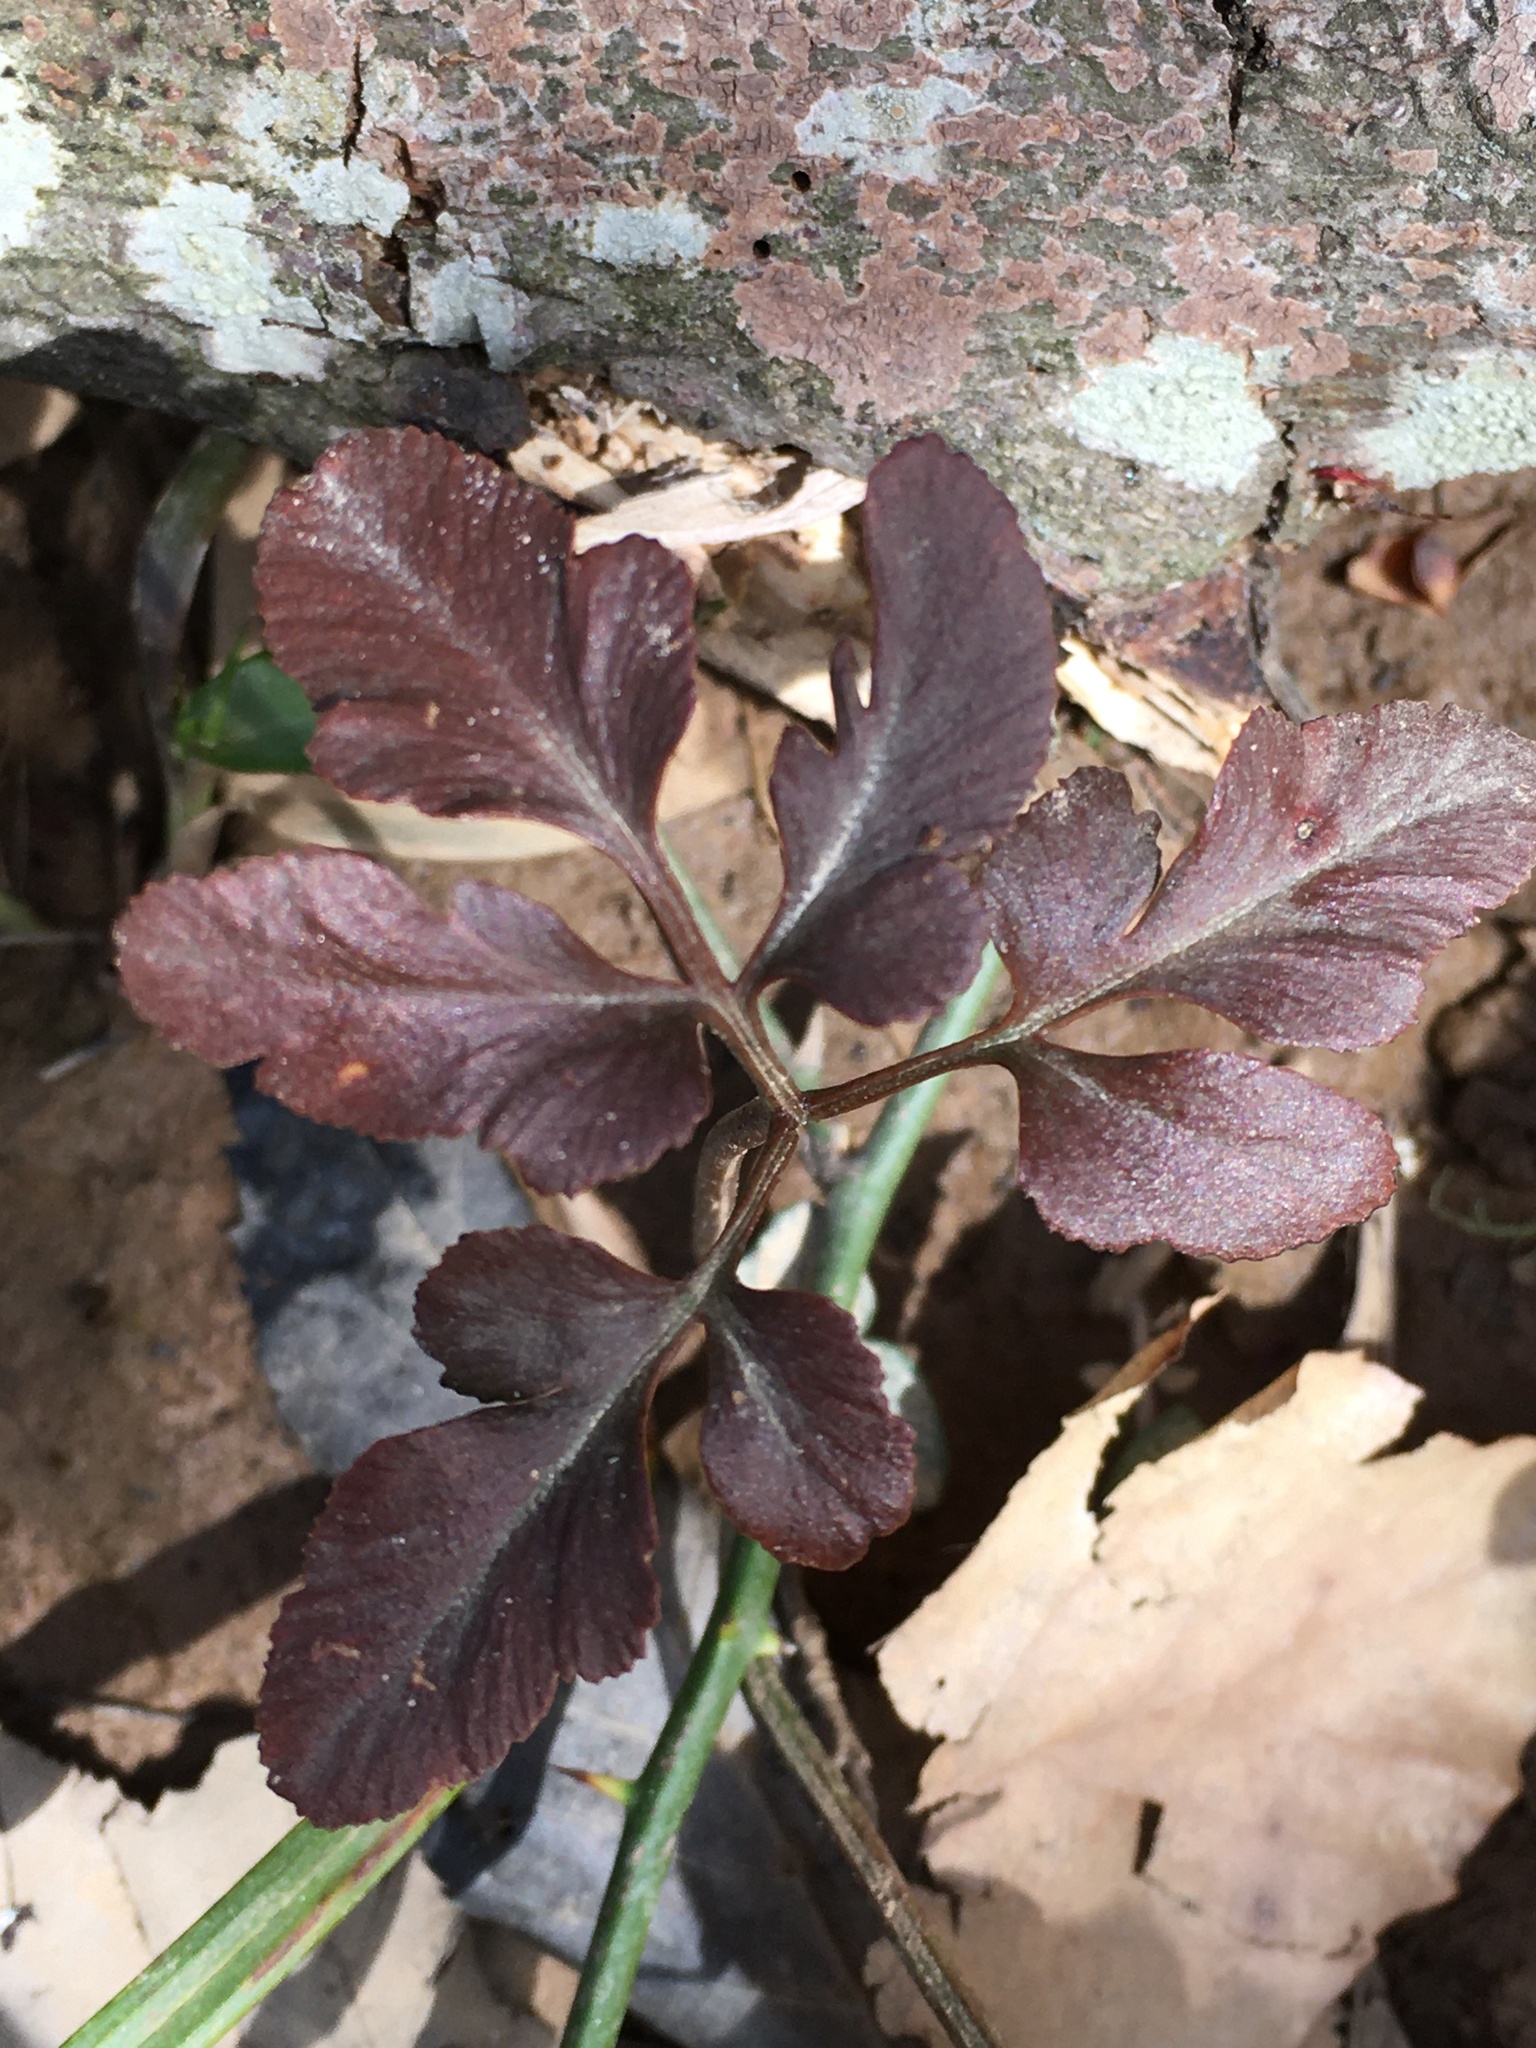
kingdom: Plantae
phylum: Tracheophyta
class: Polypodiopsida
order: Ophioglossales
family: Ophioglossaceae
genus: Sceptridium
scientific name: Sceptridium biternatum
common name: Sparse-lobed grapefern
